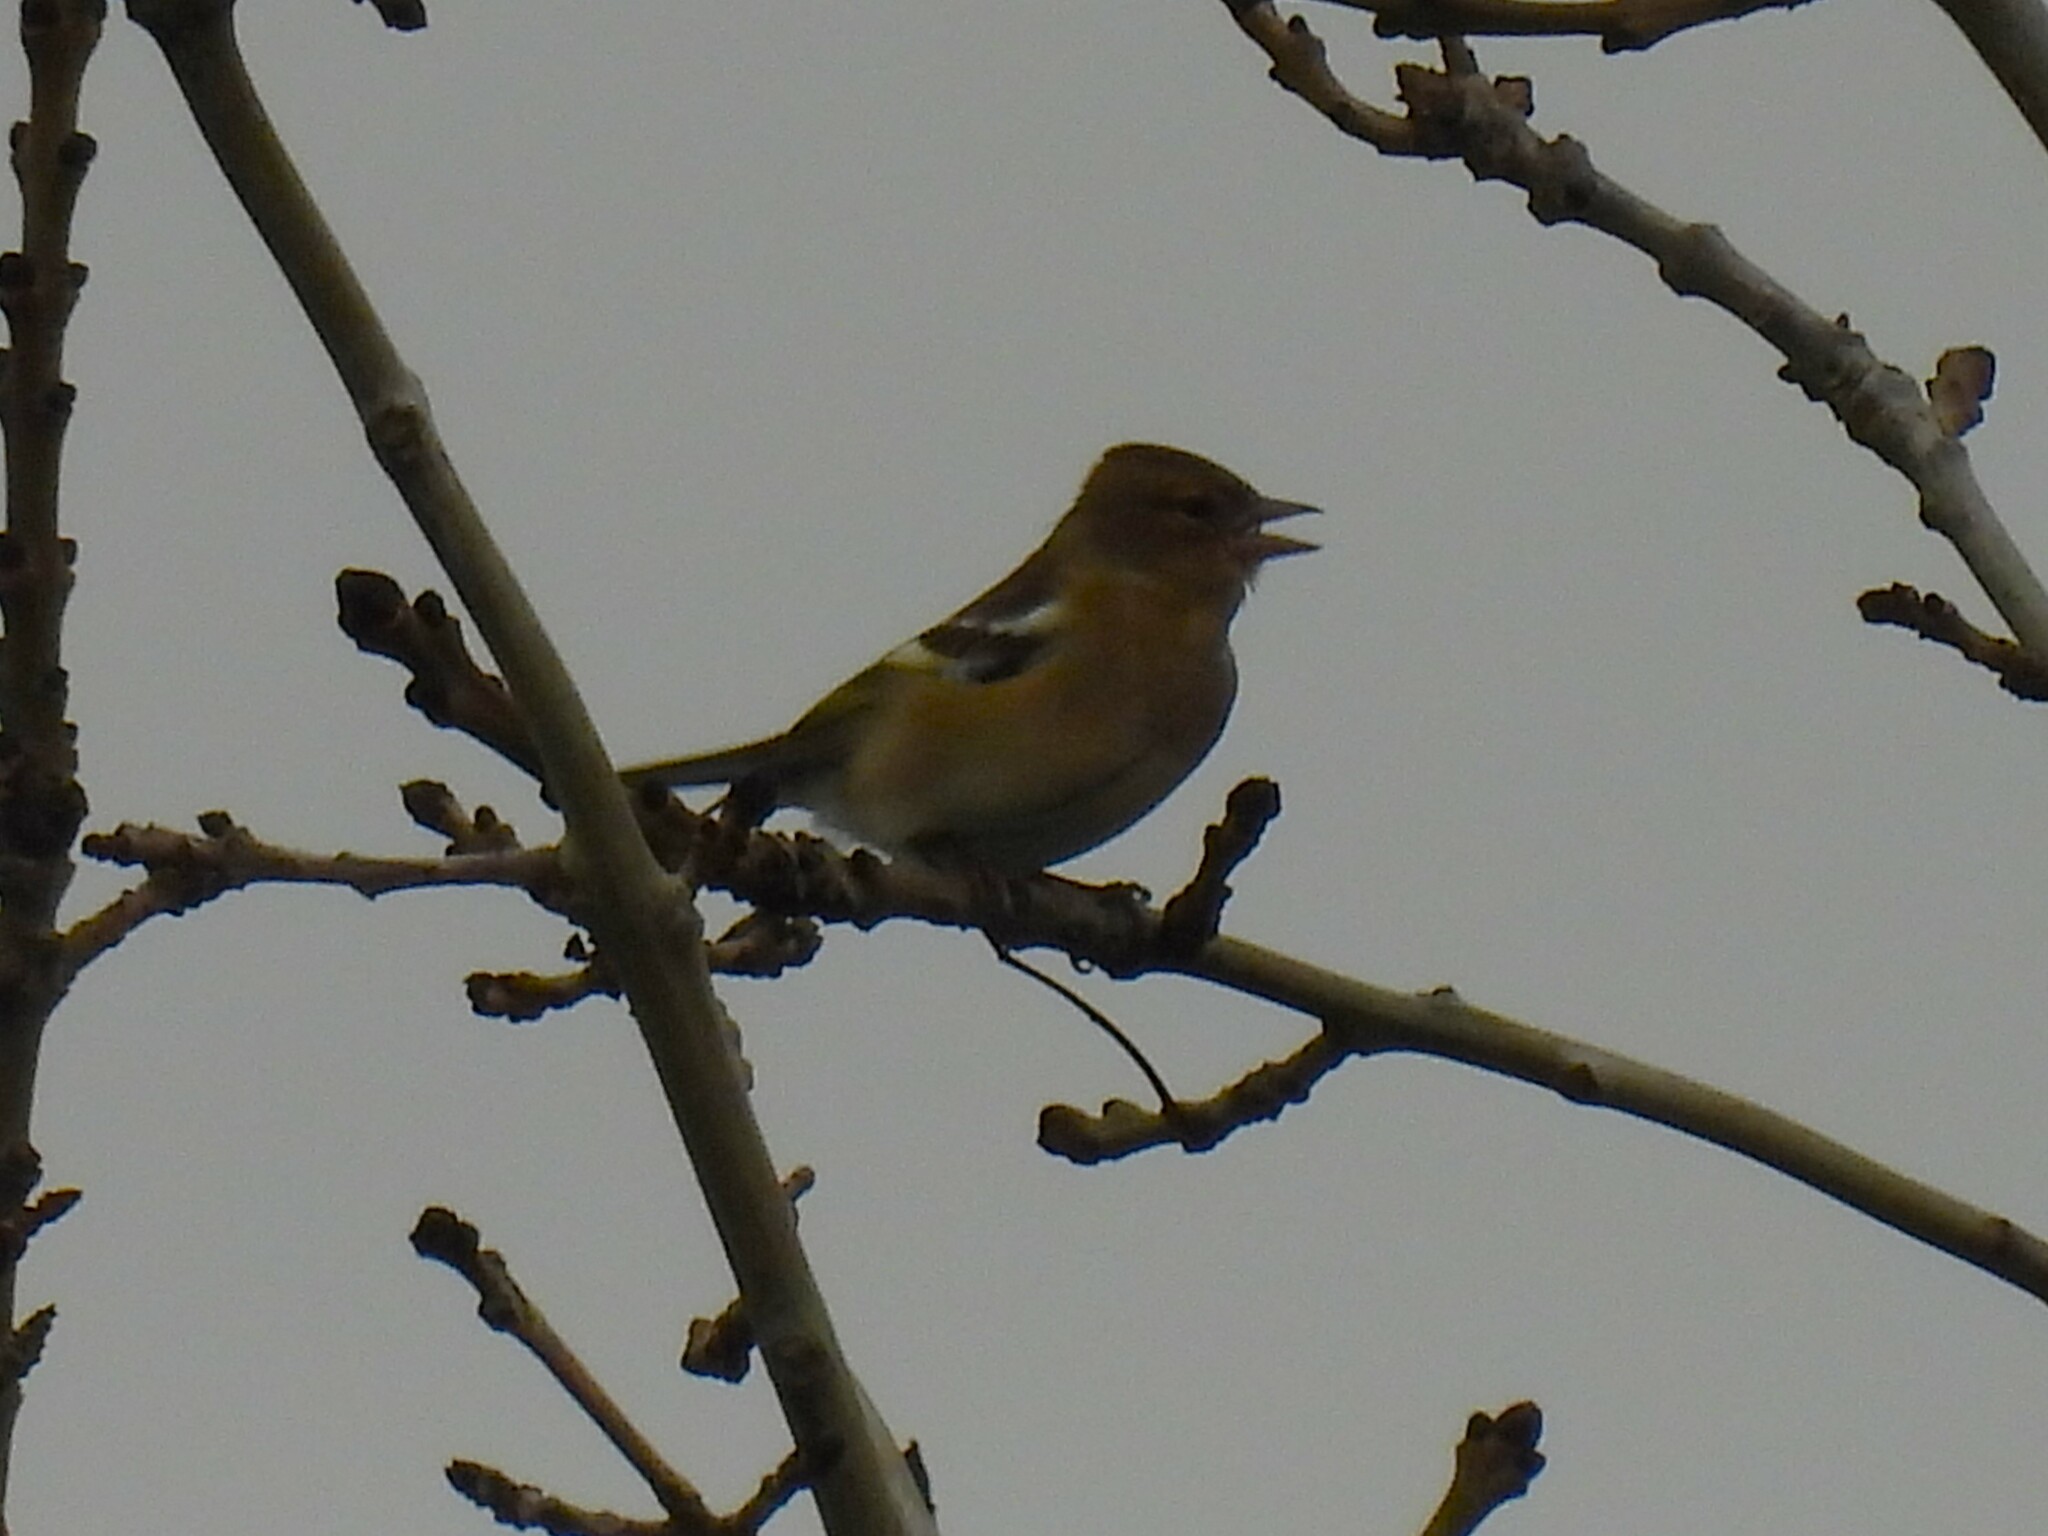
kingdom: Animalia
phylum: Chordata
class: Aves
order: Passeriformes
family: Fringillidae
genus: Fringilla
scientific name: Fringilla coelebs
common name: Common chaffinch
